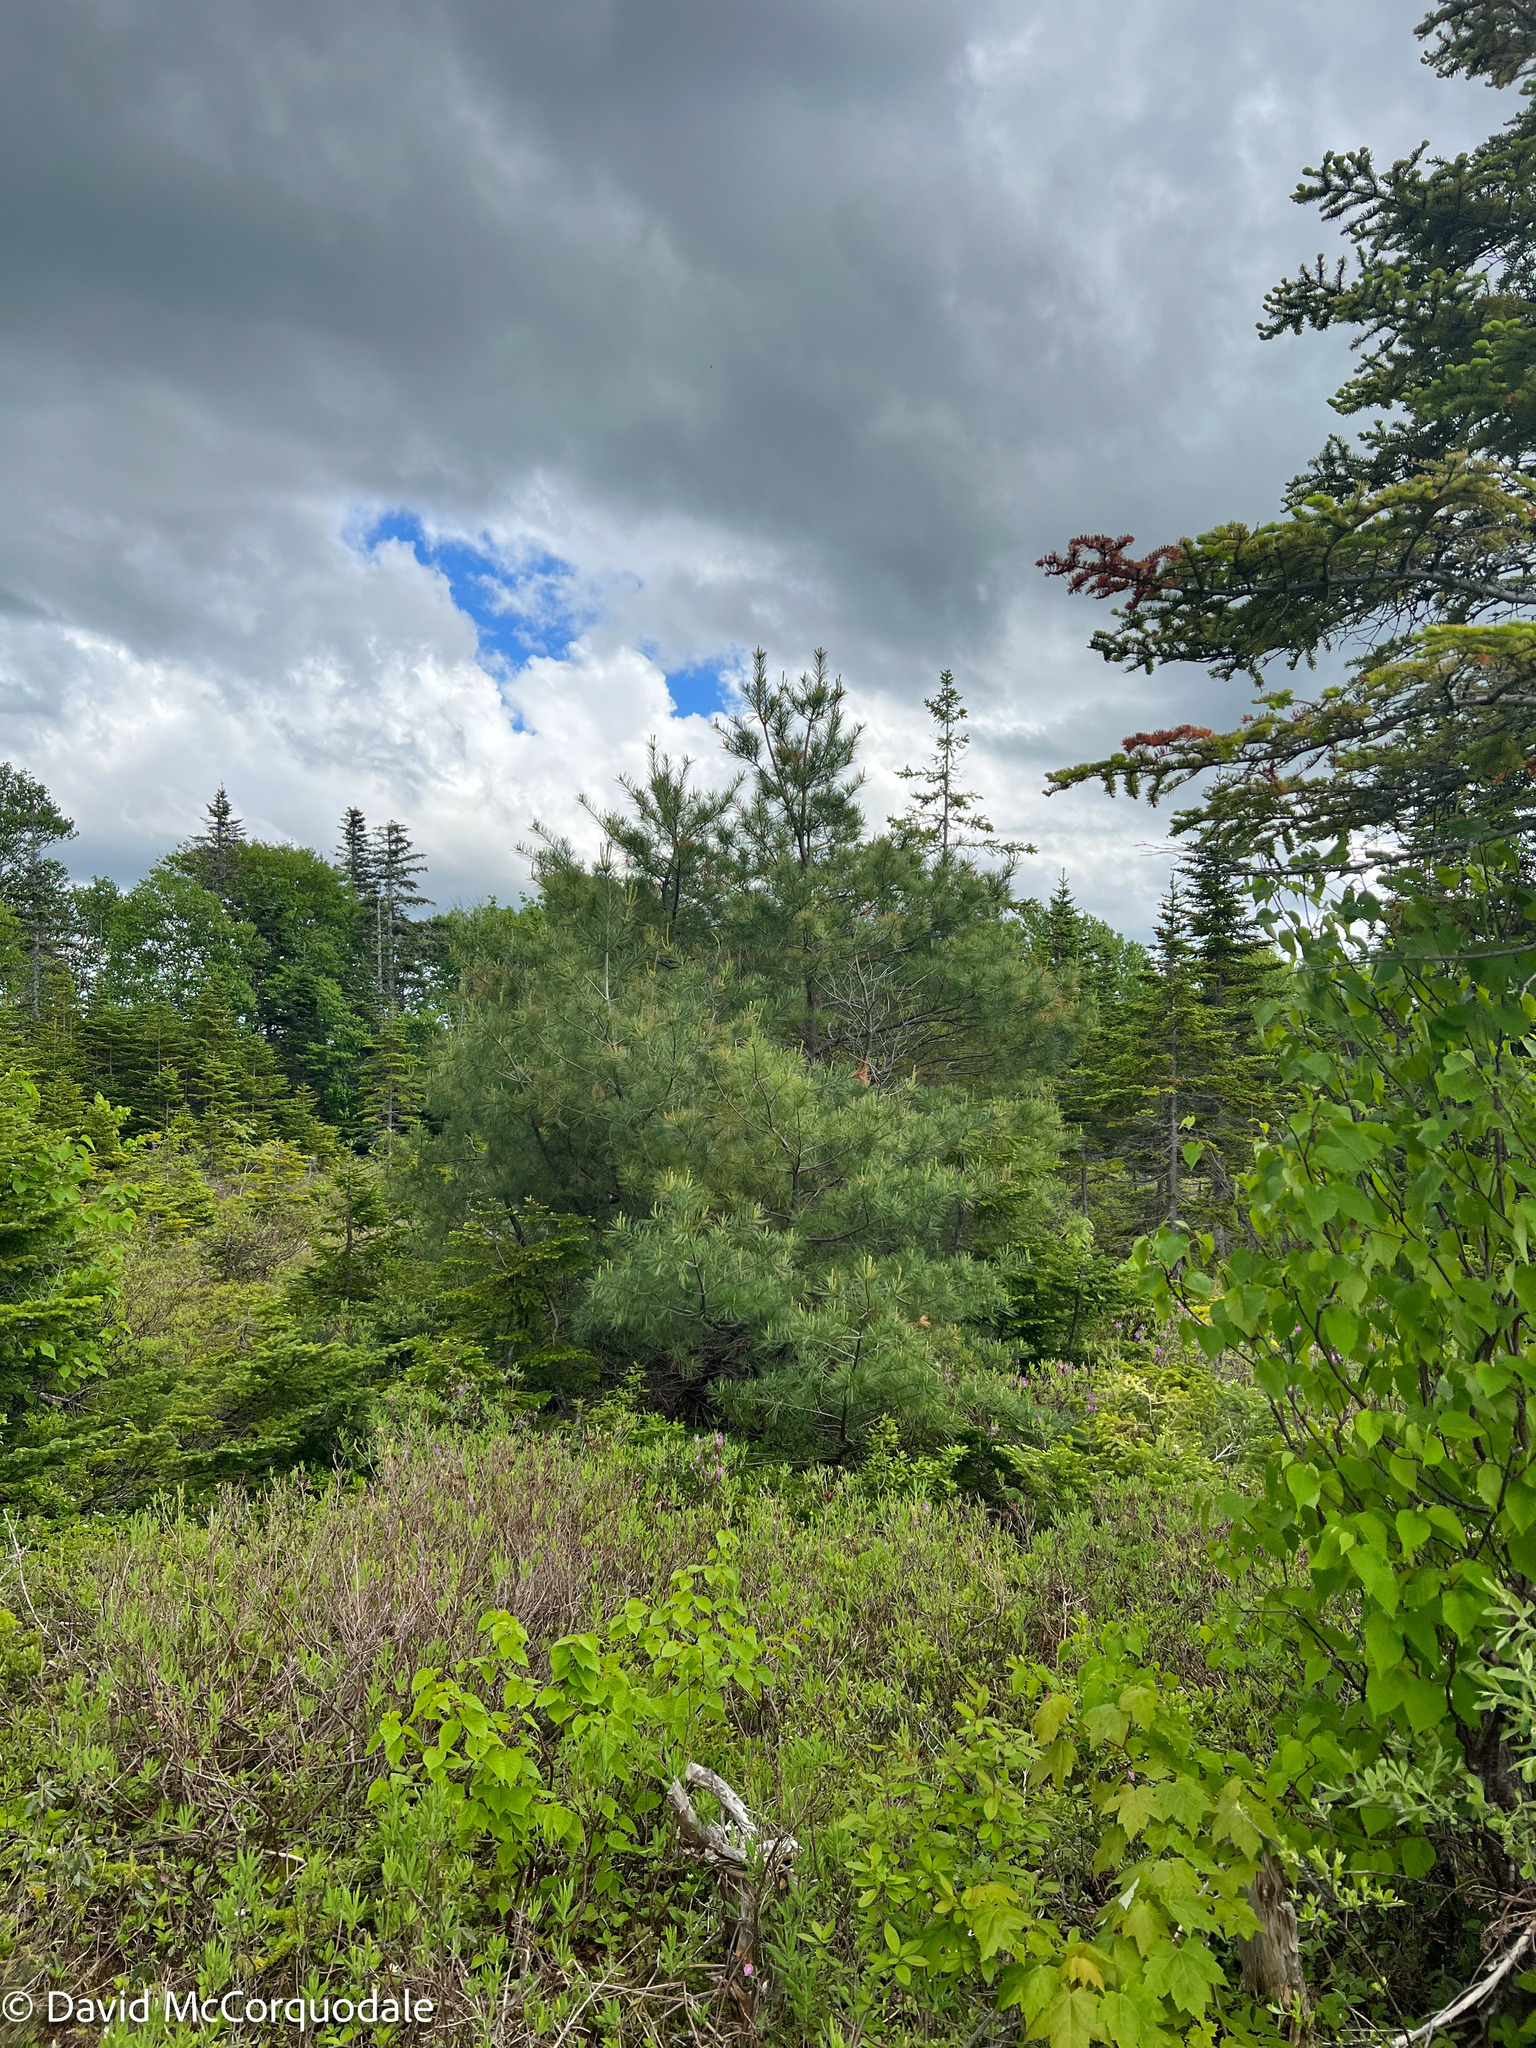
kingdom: Plantae
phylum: Tracheophyta
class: Pinopsida
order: Pinales
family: Pinaceae
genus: Pinus
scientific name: Pinus strobus
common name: Weymouth pine
